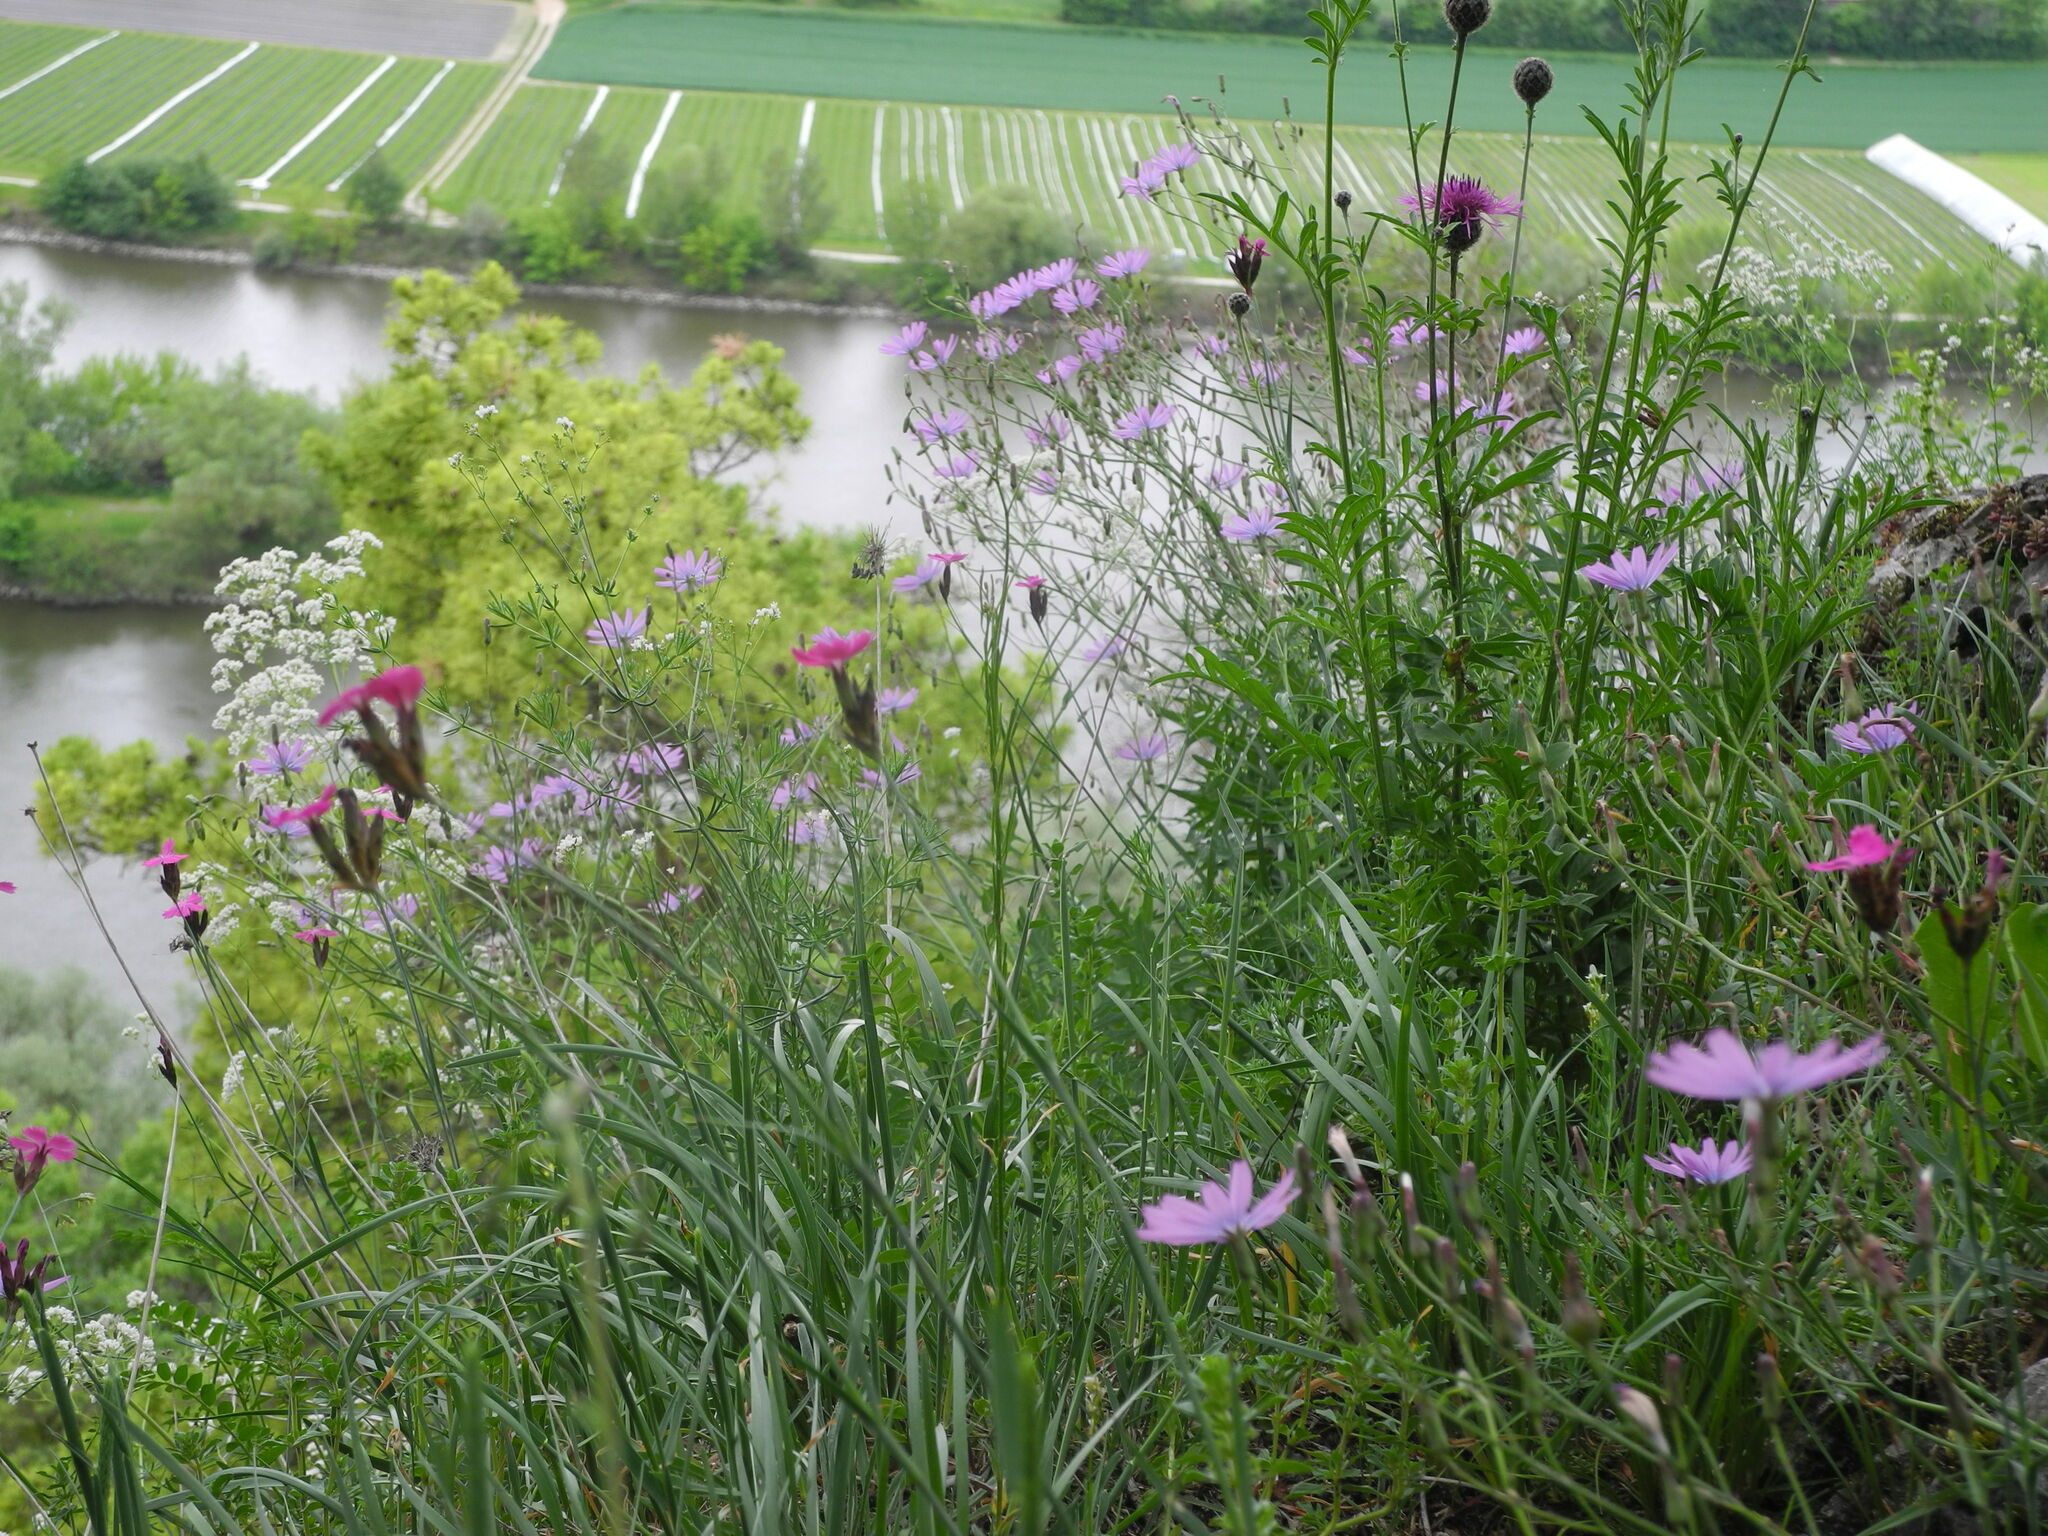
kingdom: Plantae
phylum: Tracheophyta
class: Magnoliopsida
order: Asterales
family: Asteraceae
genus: Lactuca
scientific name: Lactuca perennis
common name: Mountain lettuce
